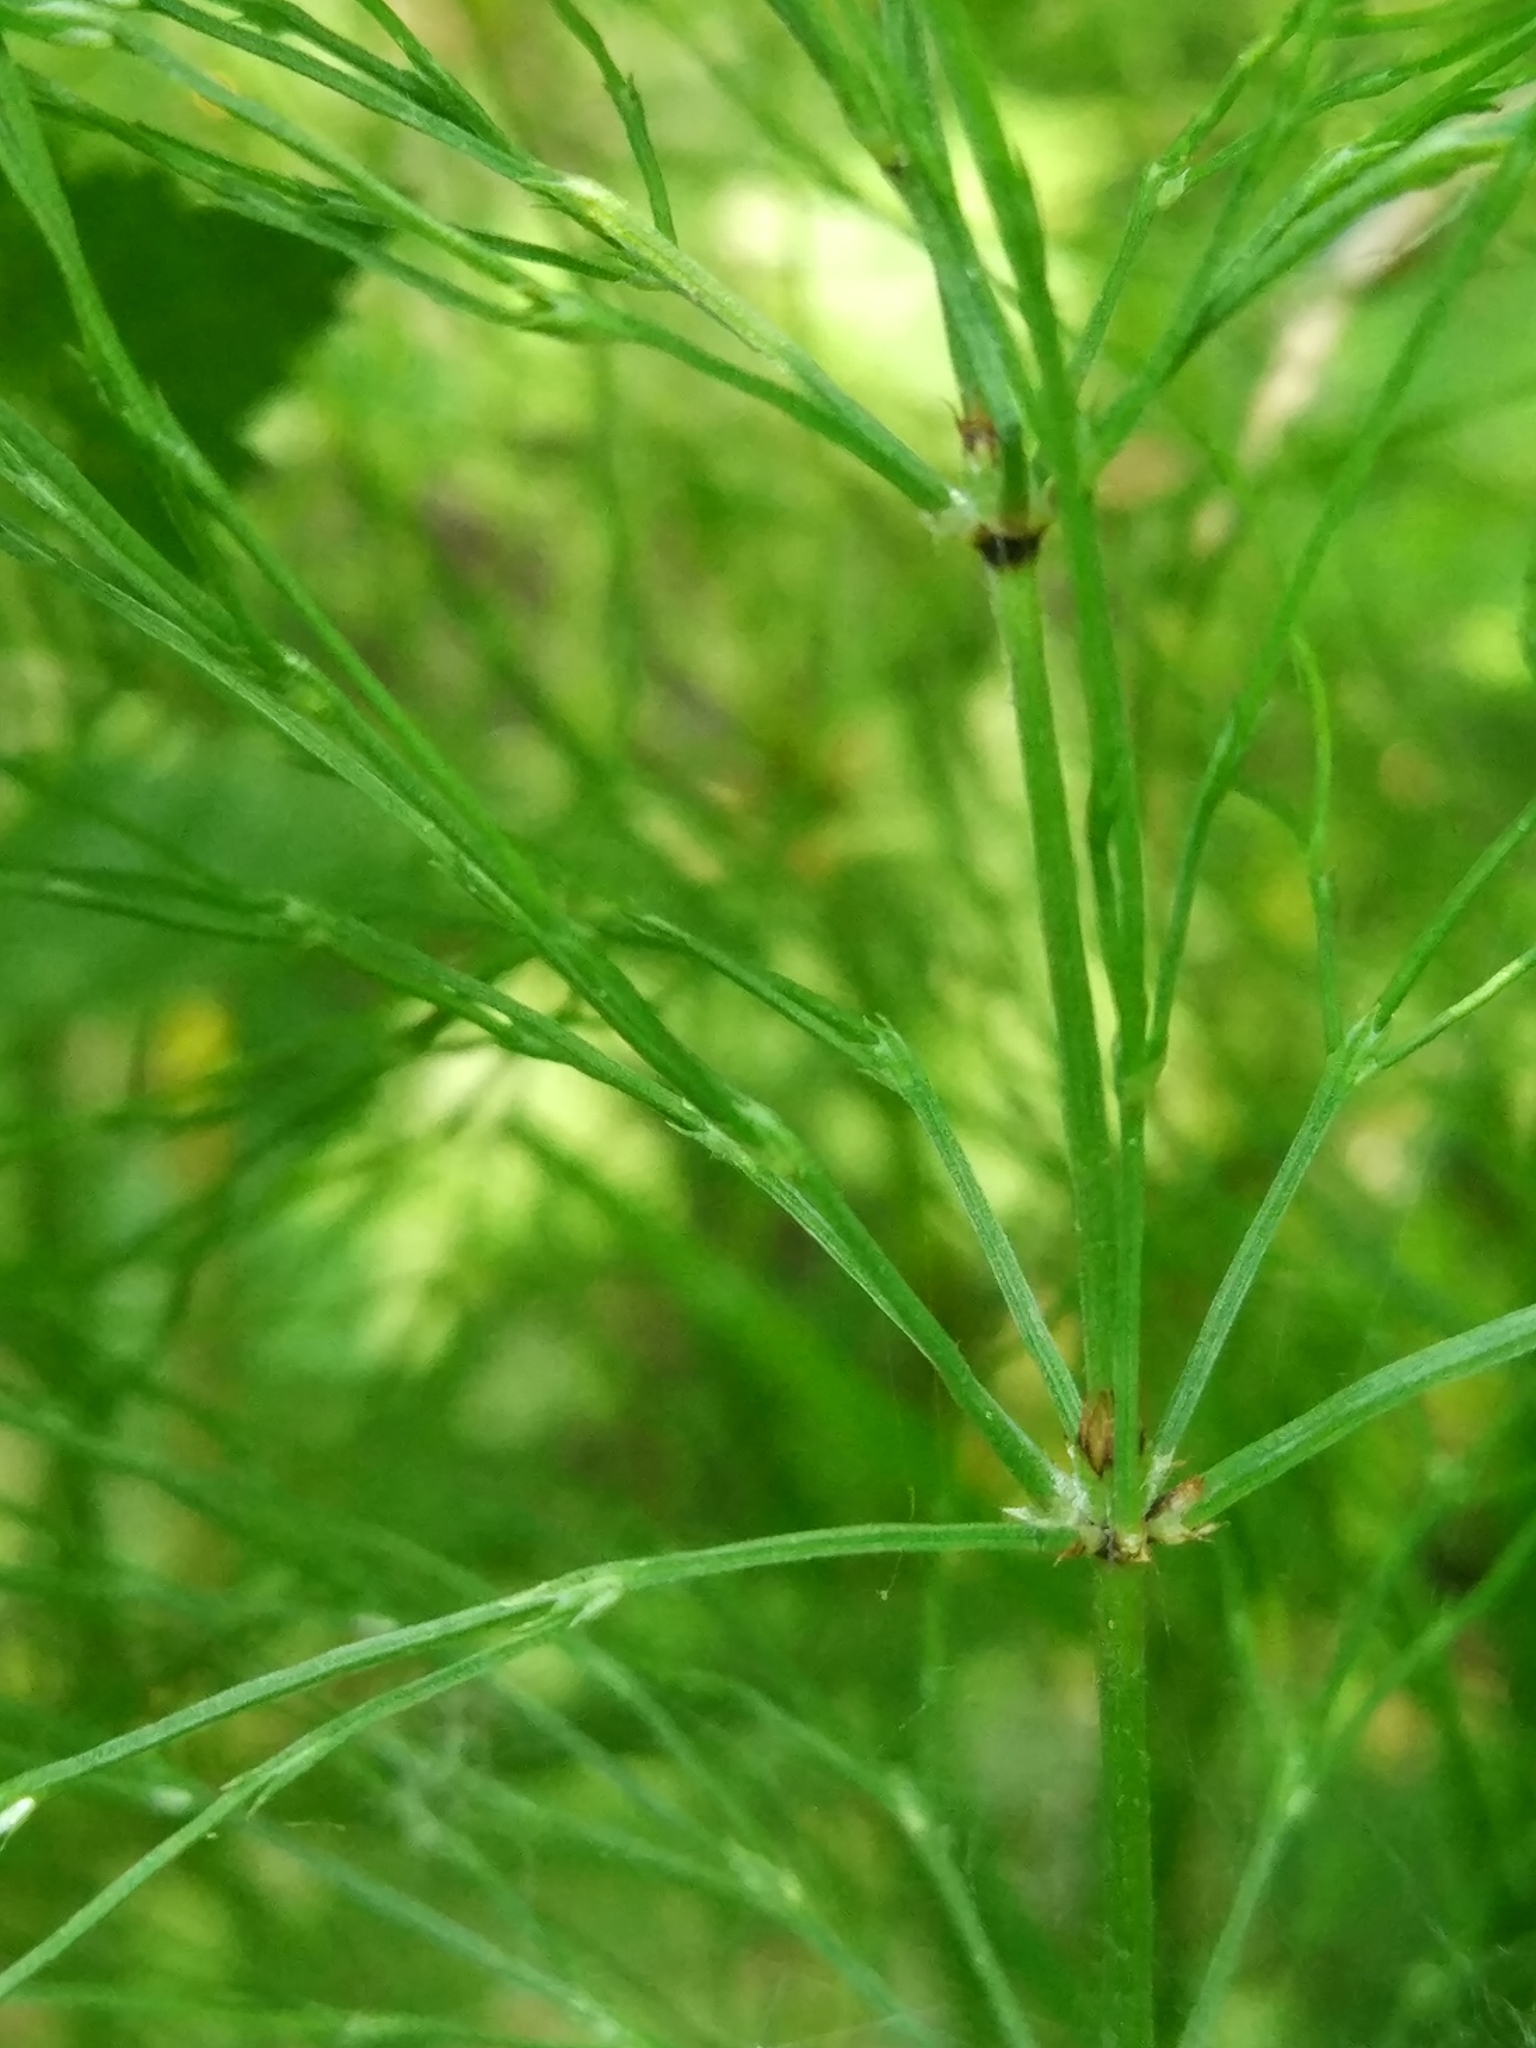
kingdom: Plantae
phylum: Tracheophyta
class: Polypodiopsida
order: Equisetales
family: Equisetaceae
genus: Equisetum
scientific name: Equisetum sylvaticum
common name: Wood horsetail
